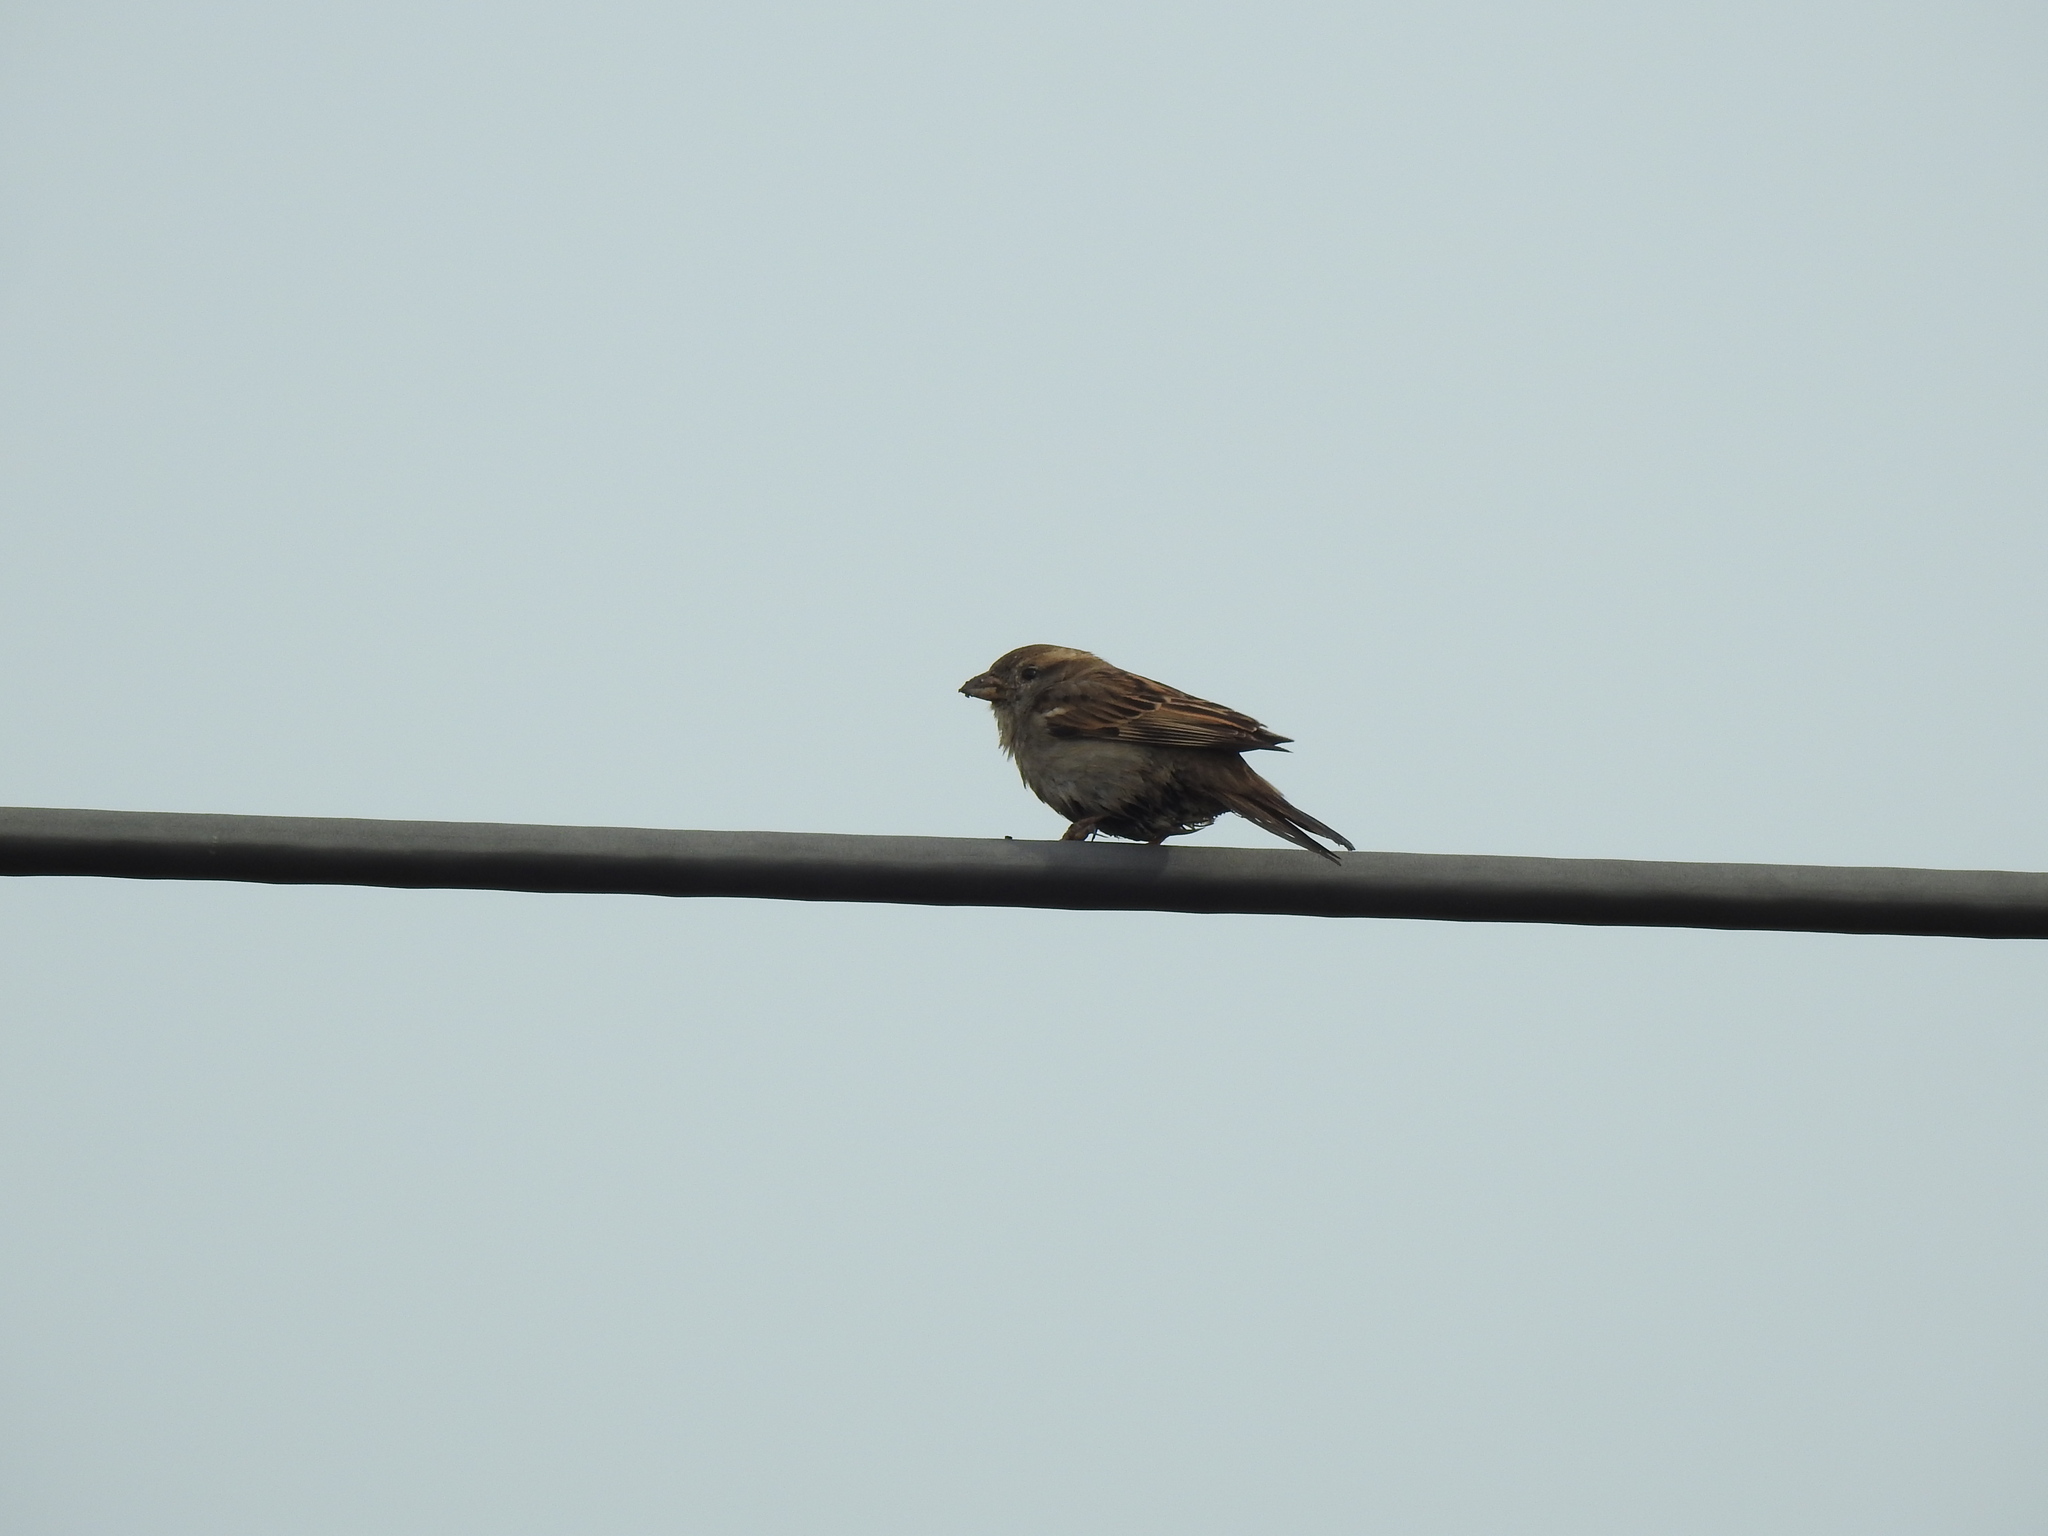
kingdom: Animalia
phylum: Chordata
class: Aves
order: Passeriformes
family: Passeridae
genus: Passer
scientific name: Passer domesticus
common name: House sparrow
